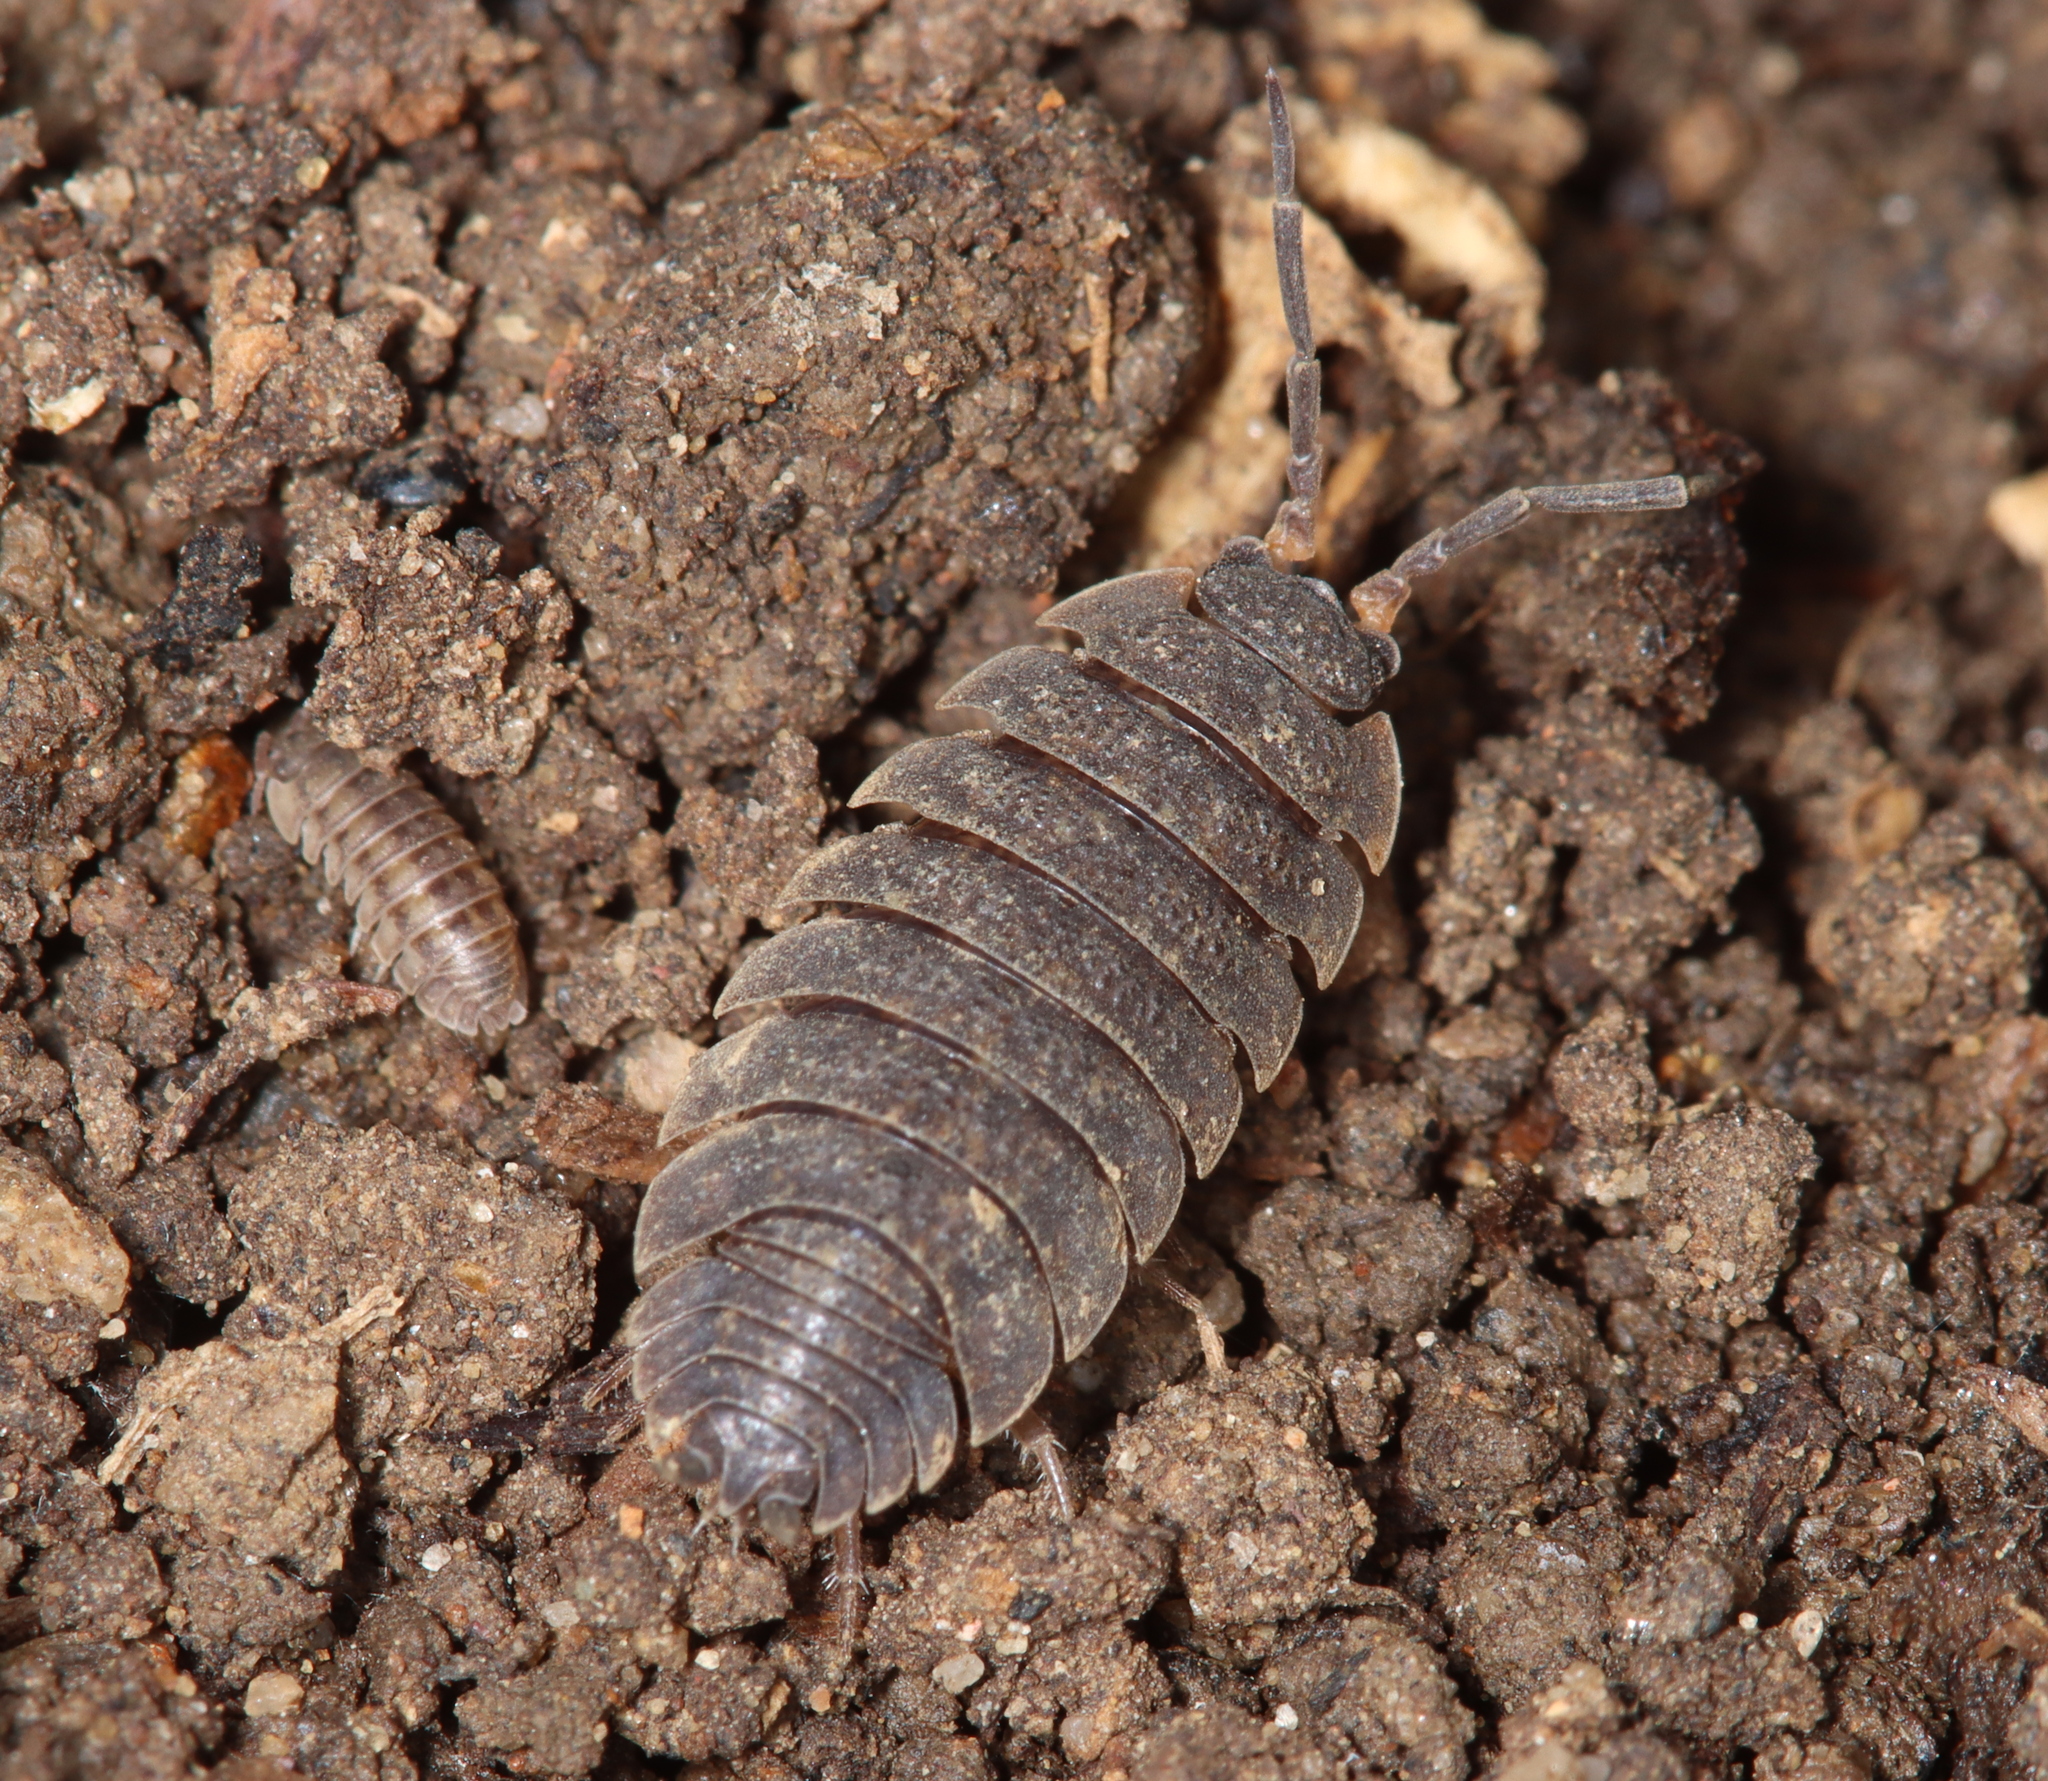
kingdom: Animalia
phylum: Arthropoda
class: Malacostraca
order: Isopoda
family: Porcellionidae
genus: Porcellio
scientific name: Porcellio scaber
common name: Common rough woodlouse
